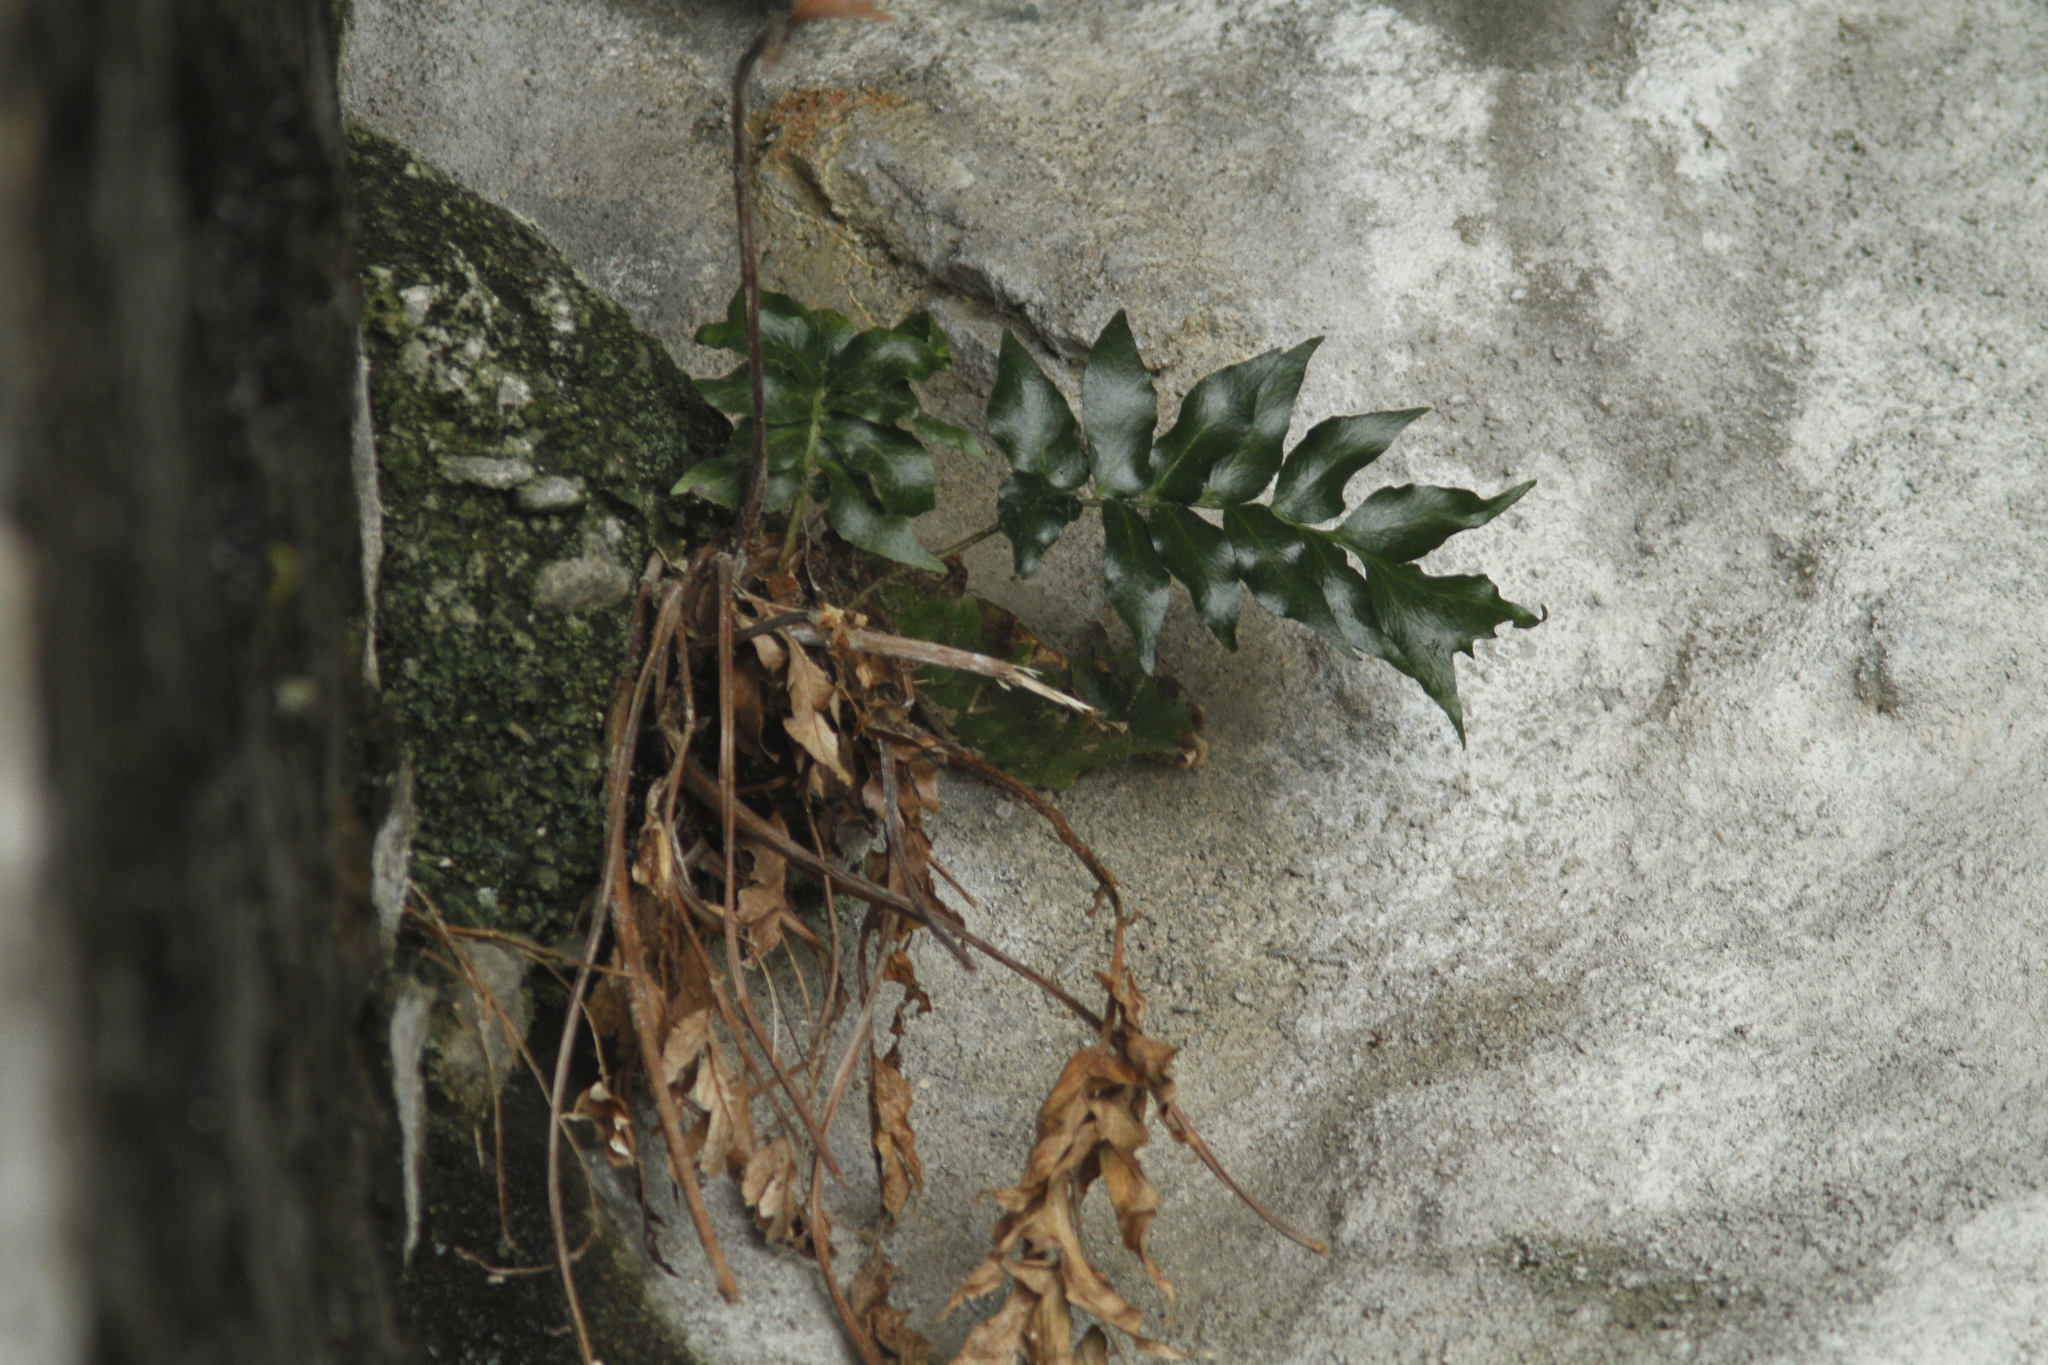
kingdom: Plantae
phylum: Tracheophyta
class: Polypodiopsida
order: Polypodiales
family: Dryopteridaceae
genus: Cyrtomium
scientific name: Cyrtomium falcatum
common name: House holly-fern
